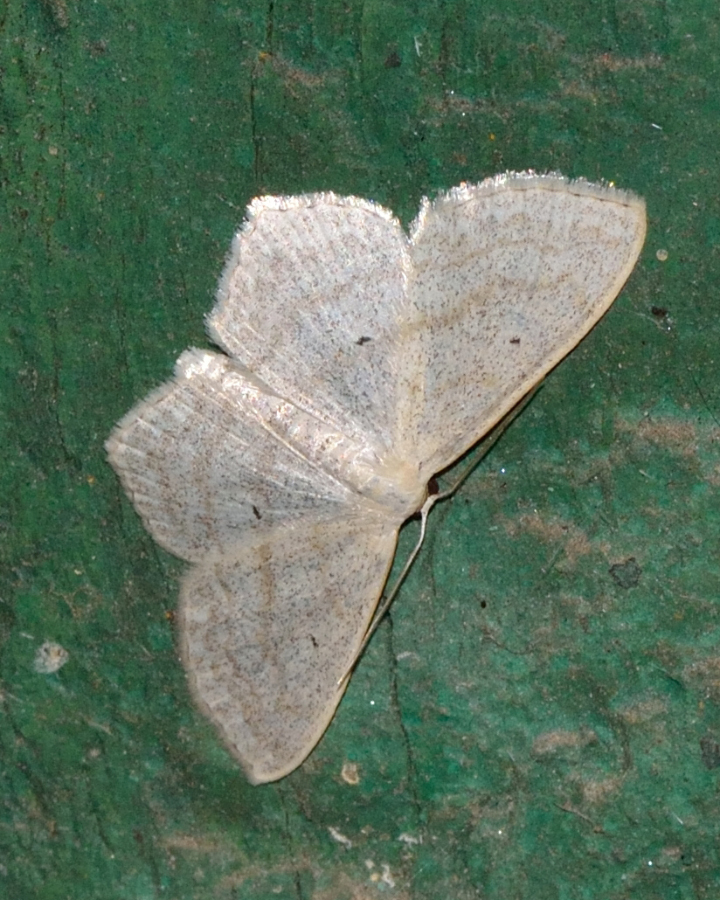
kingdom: Animalia
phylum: Arthropoda
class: Insecta
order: Lepidoptera
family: Geometridae
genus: Scopula
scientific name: Scopula nigropunctata
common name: Sub-angled wave
